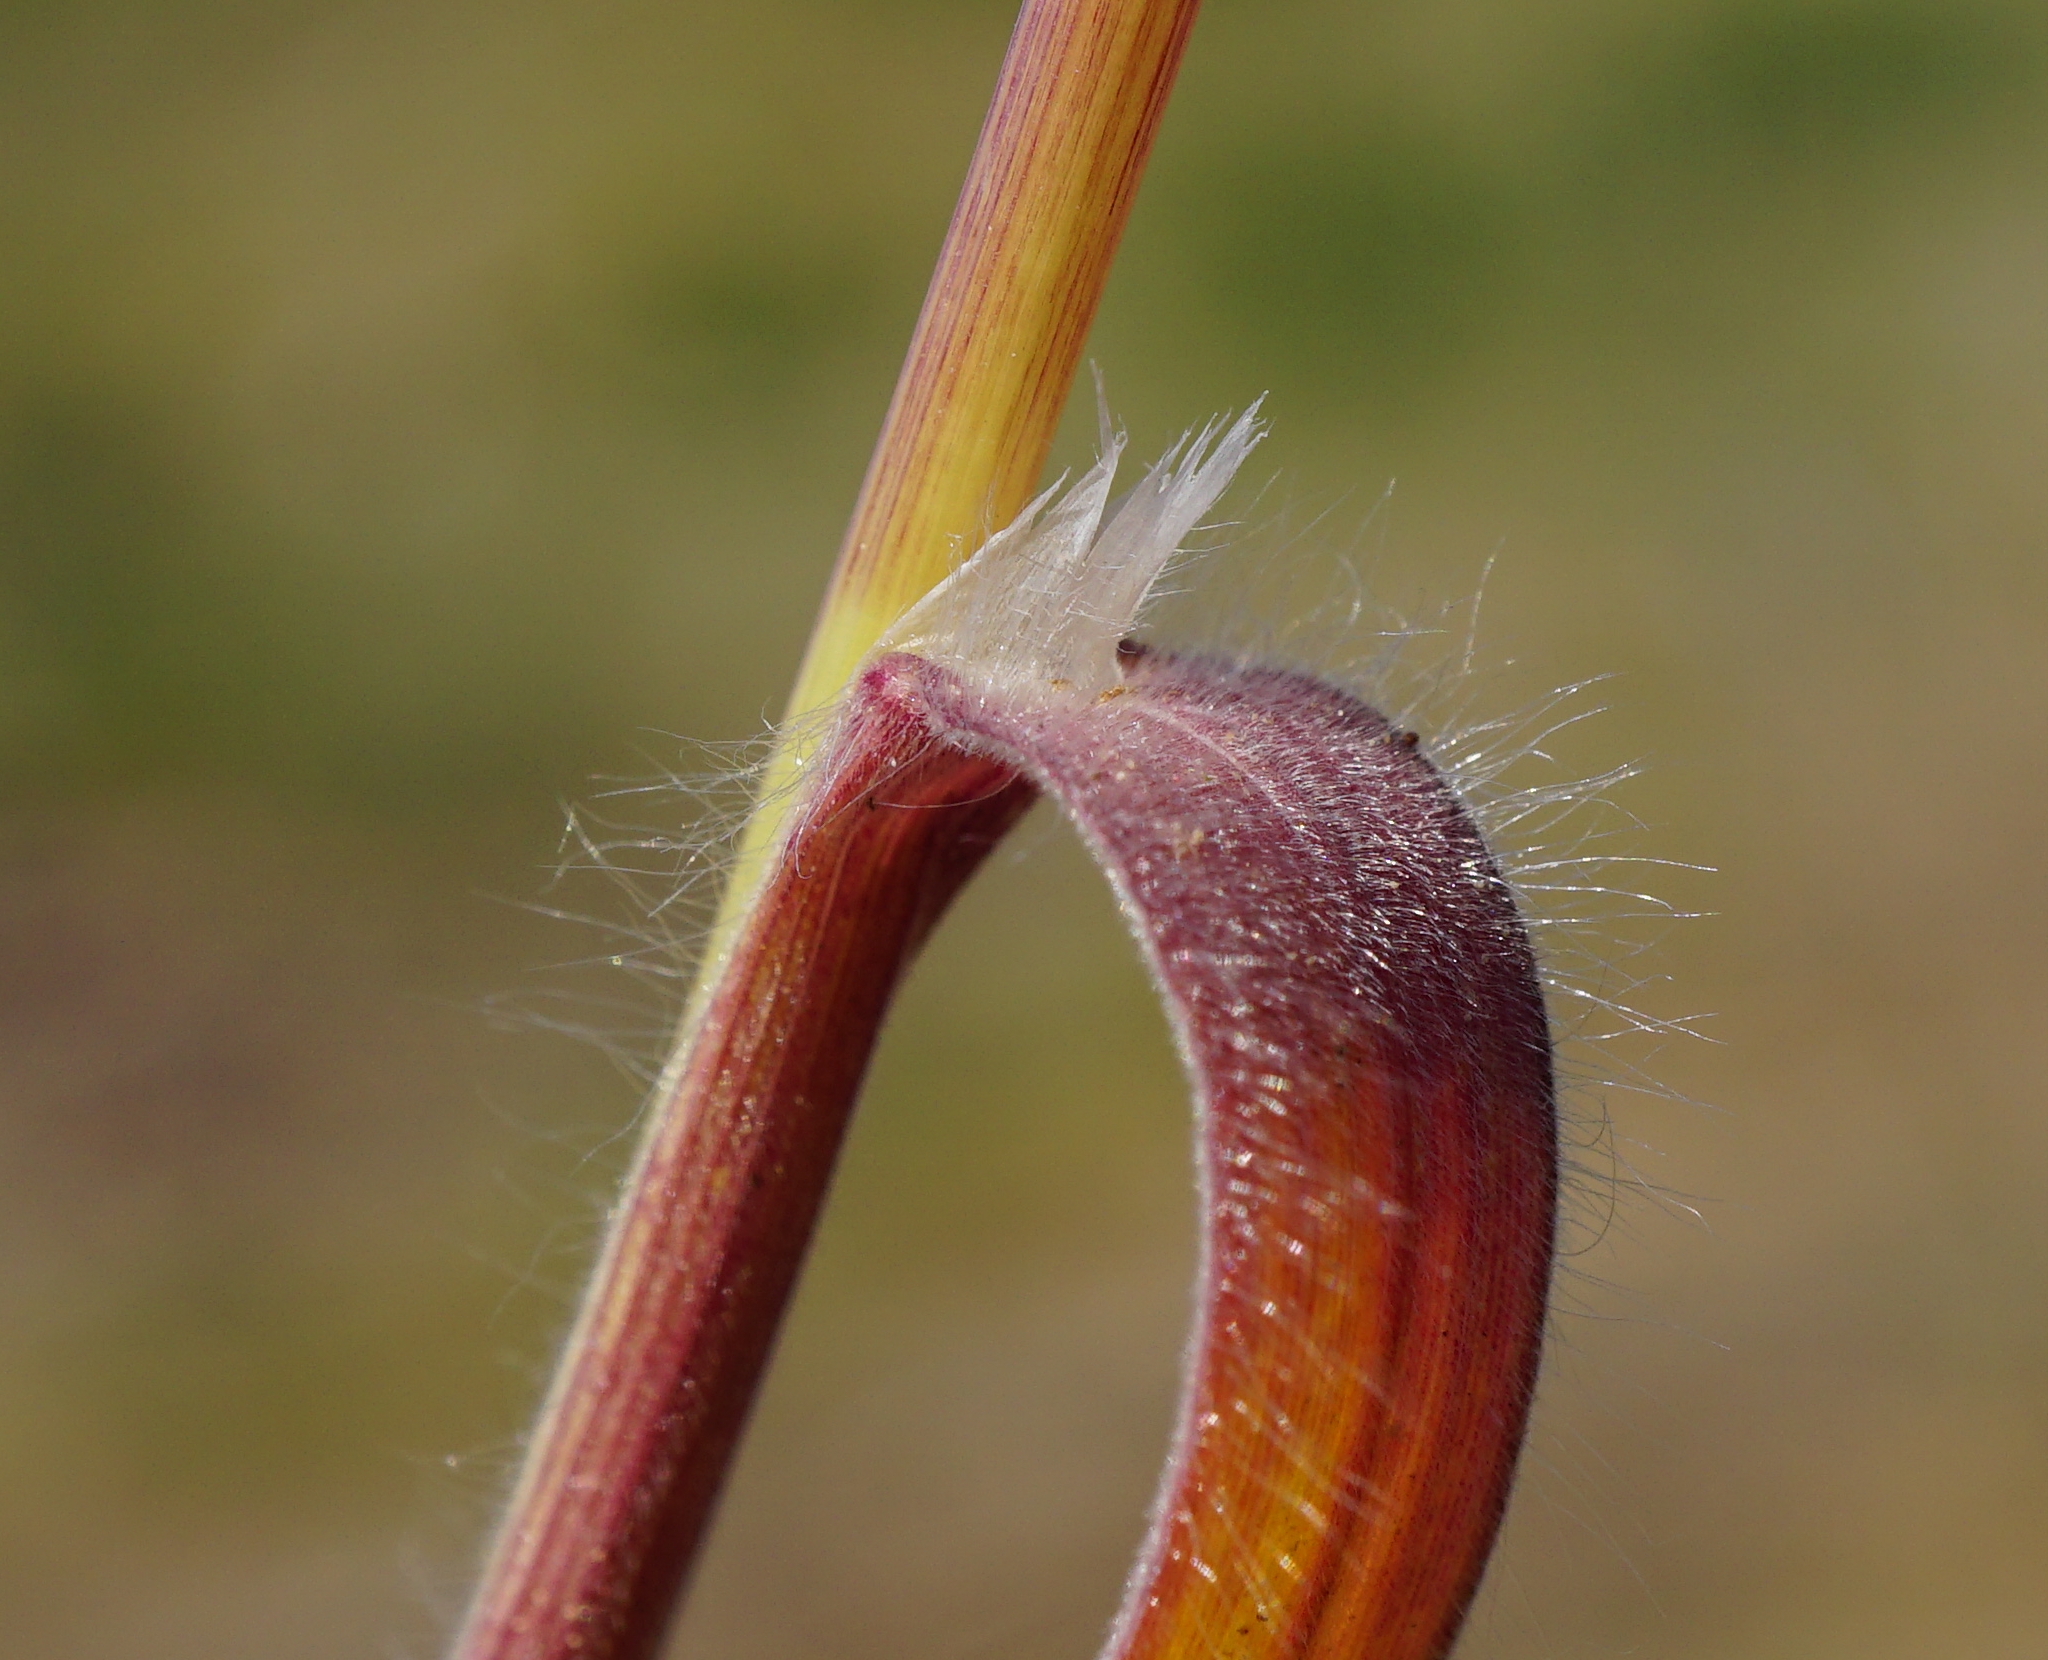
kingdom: Plantae
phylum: Tracheophyta
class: Liliopsida
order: Poales
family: Poaceae
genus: Bromus
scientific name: Bromus tectorum
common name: Cheatgrass
